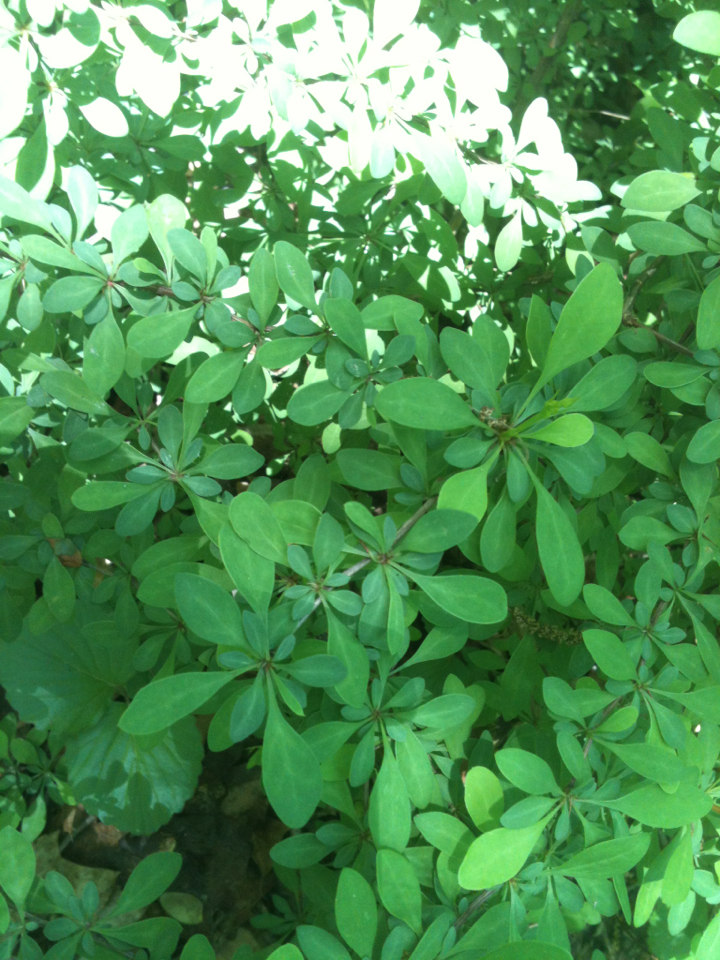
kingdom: Plantae
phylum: Tracheophyta
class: Magnoliopsida
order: Ranunculales
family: Berberidaceae
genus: Berberis
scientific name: Berberis thunbergii
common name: Japanese barberry
